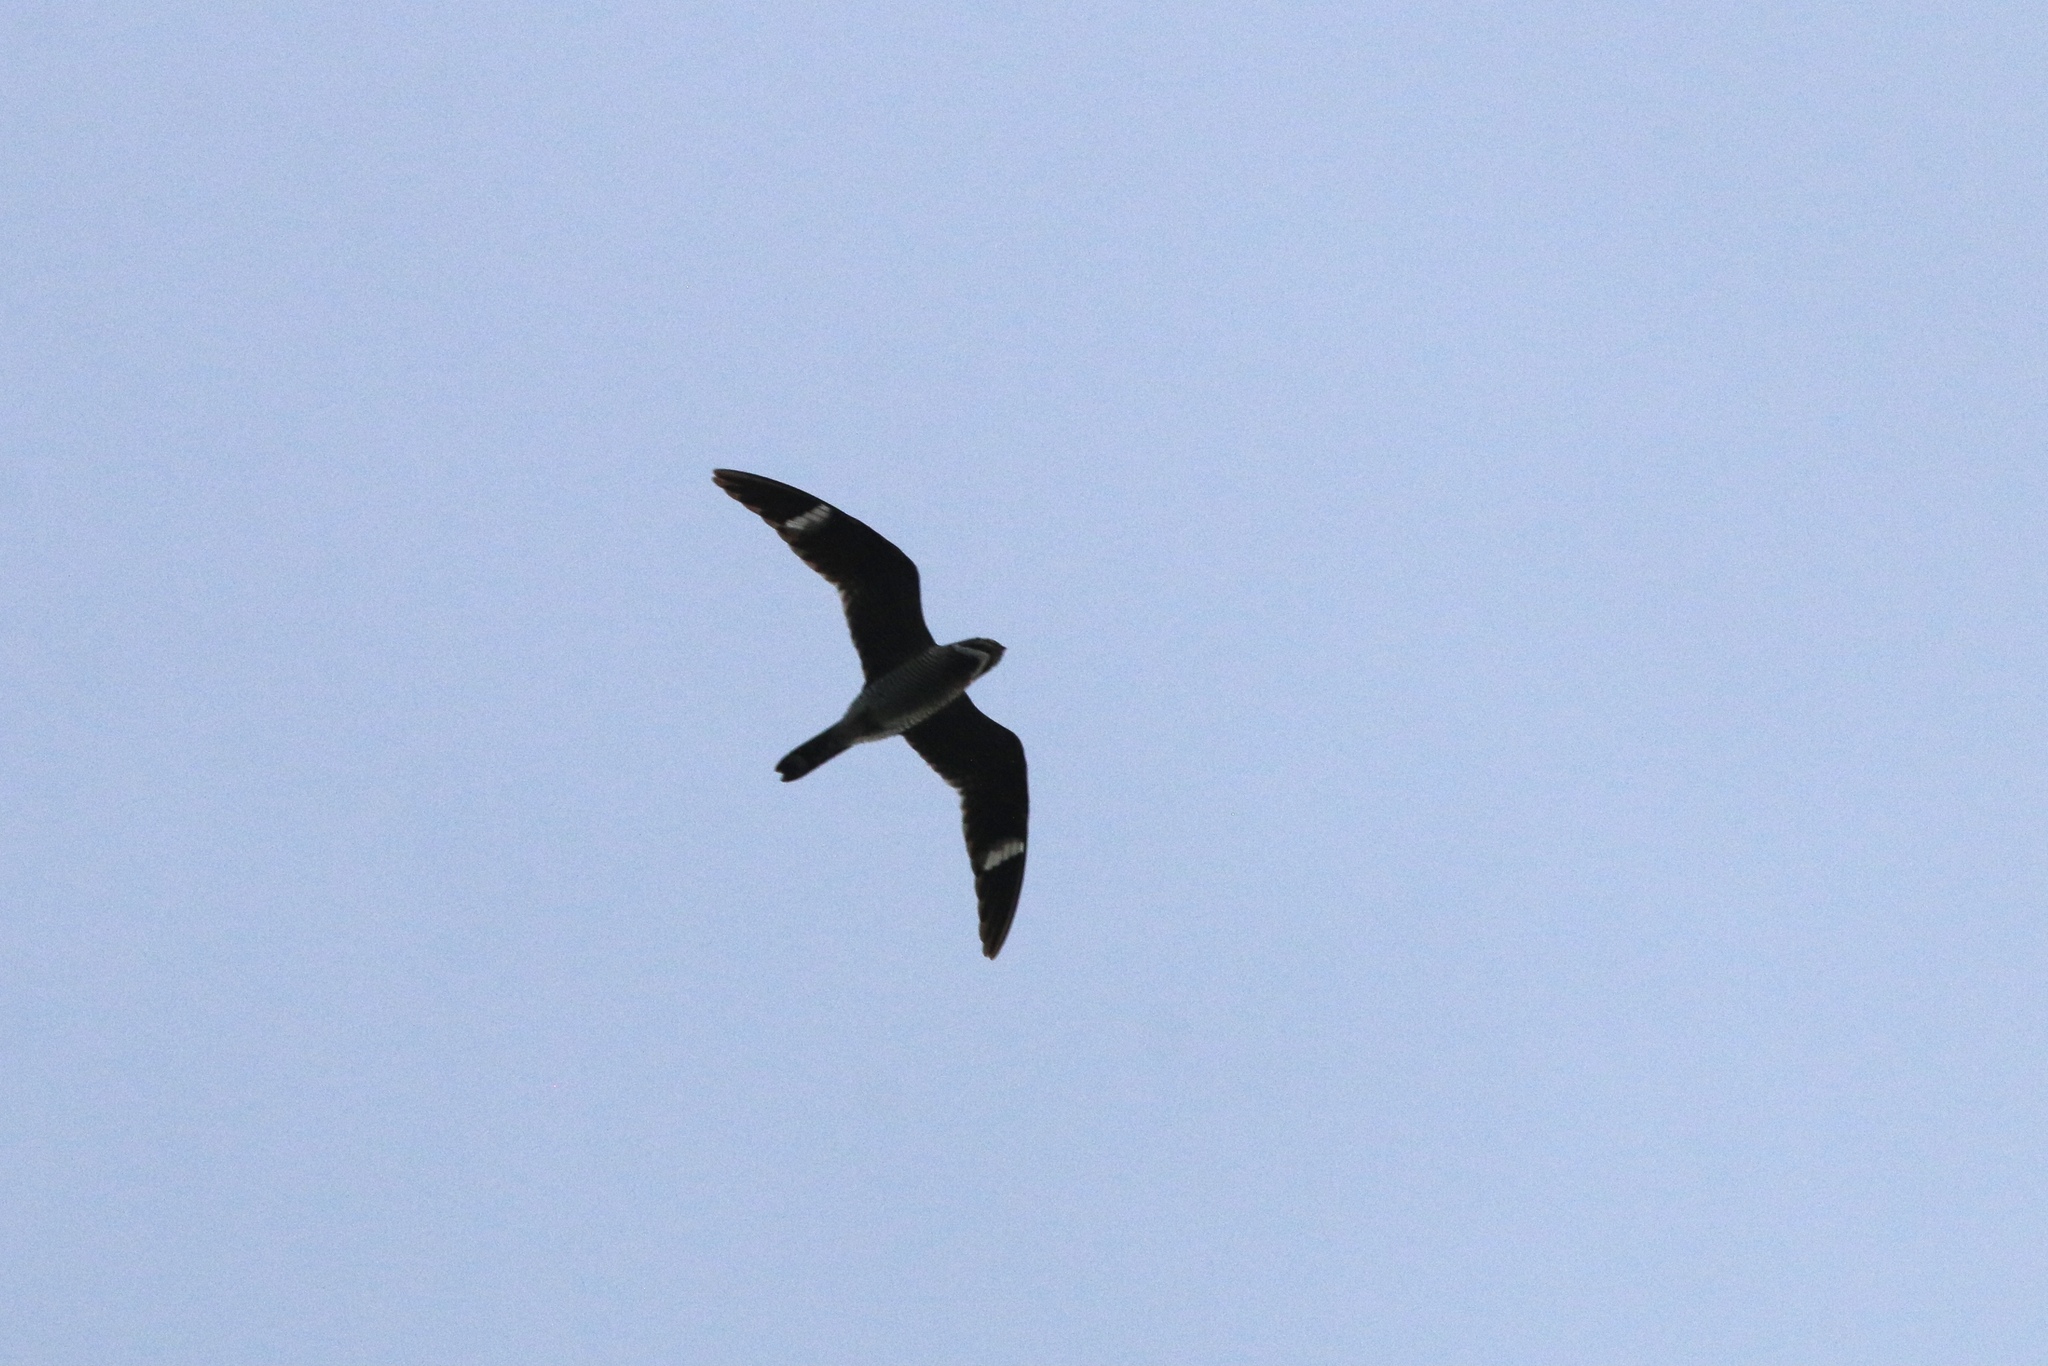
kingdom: Animalia
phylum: Chordata
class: Aves
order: Caprimulgiformes
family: Caprimulgidae
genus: Chordeiles
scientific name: Chordeiles minor
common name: Common nighthawk
